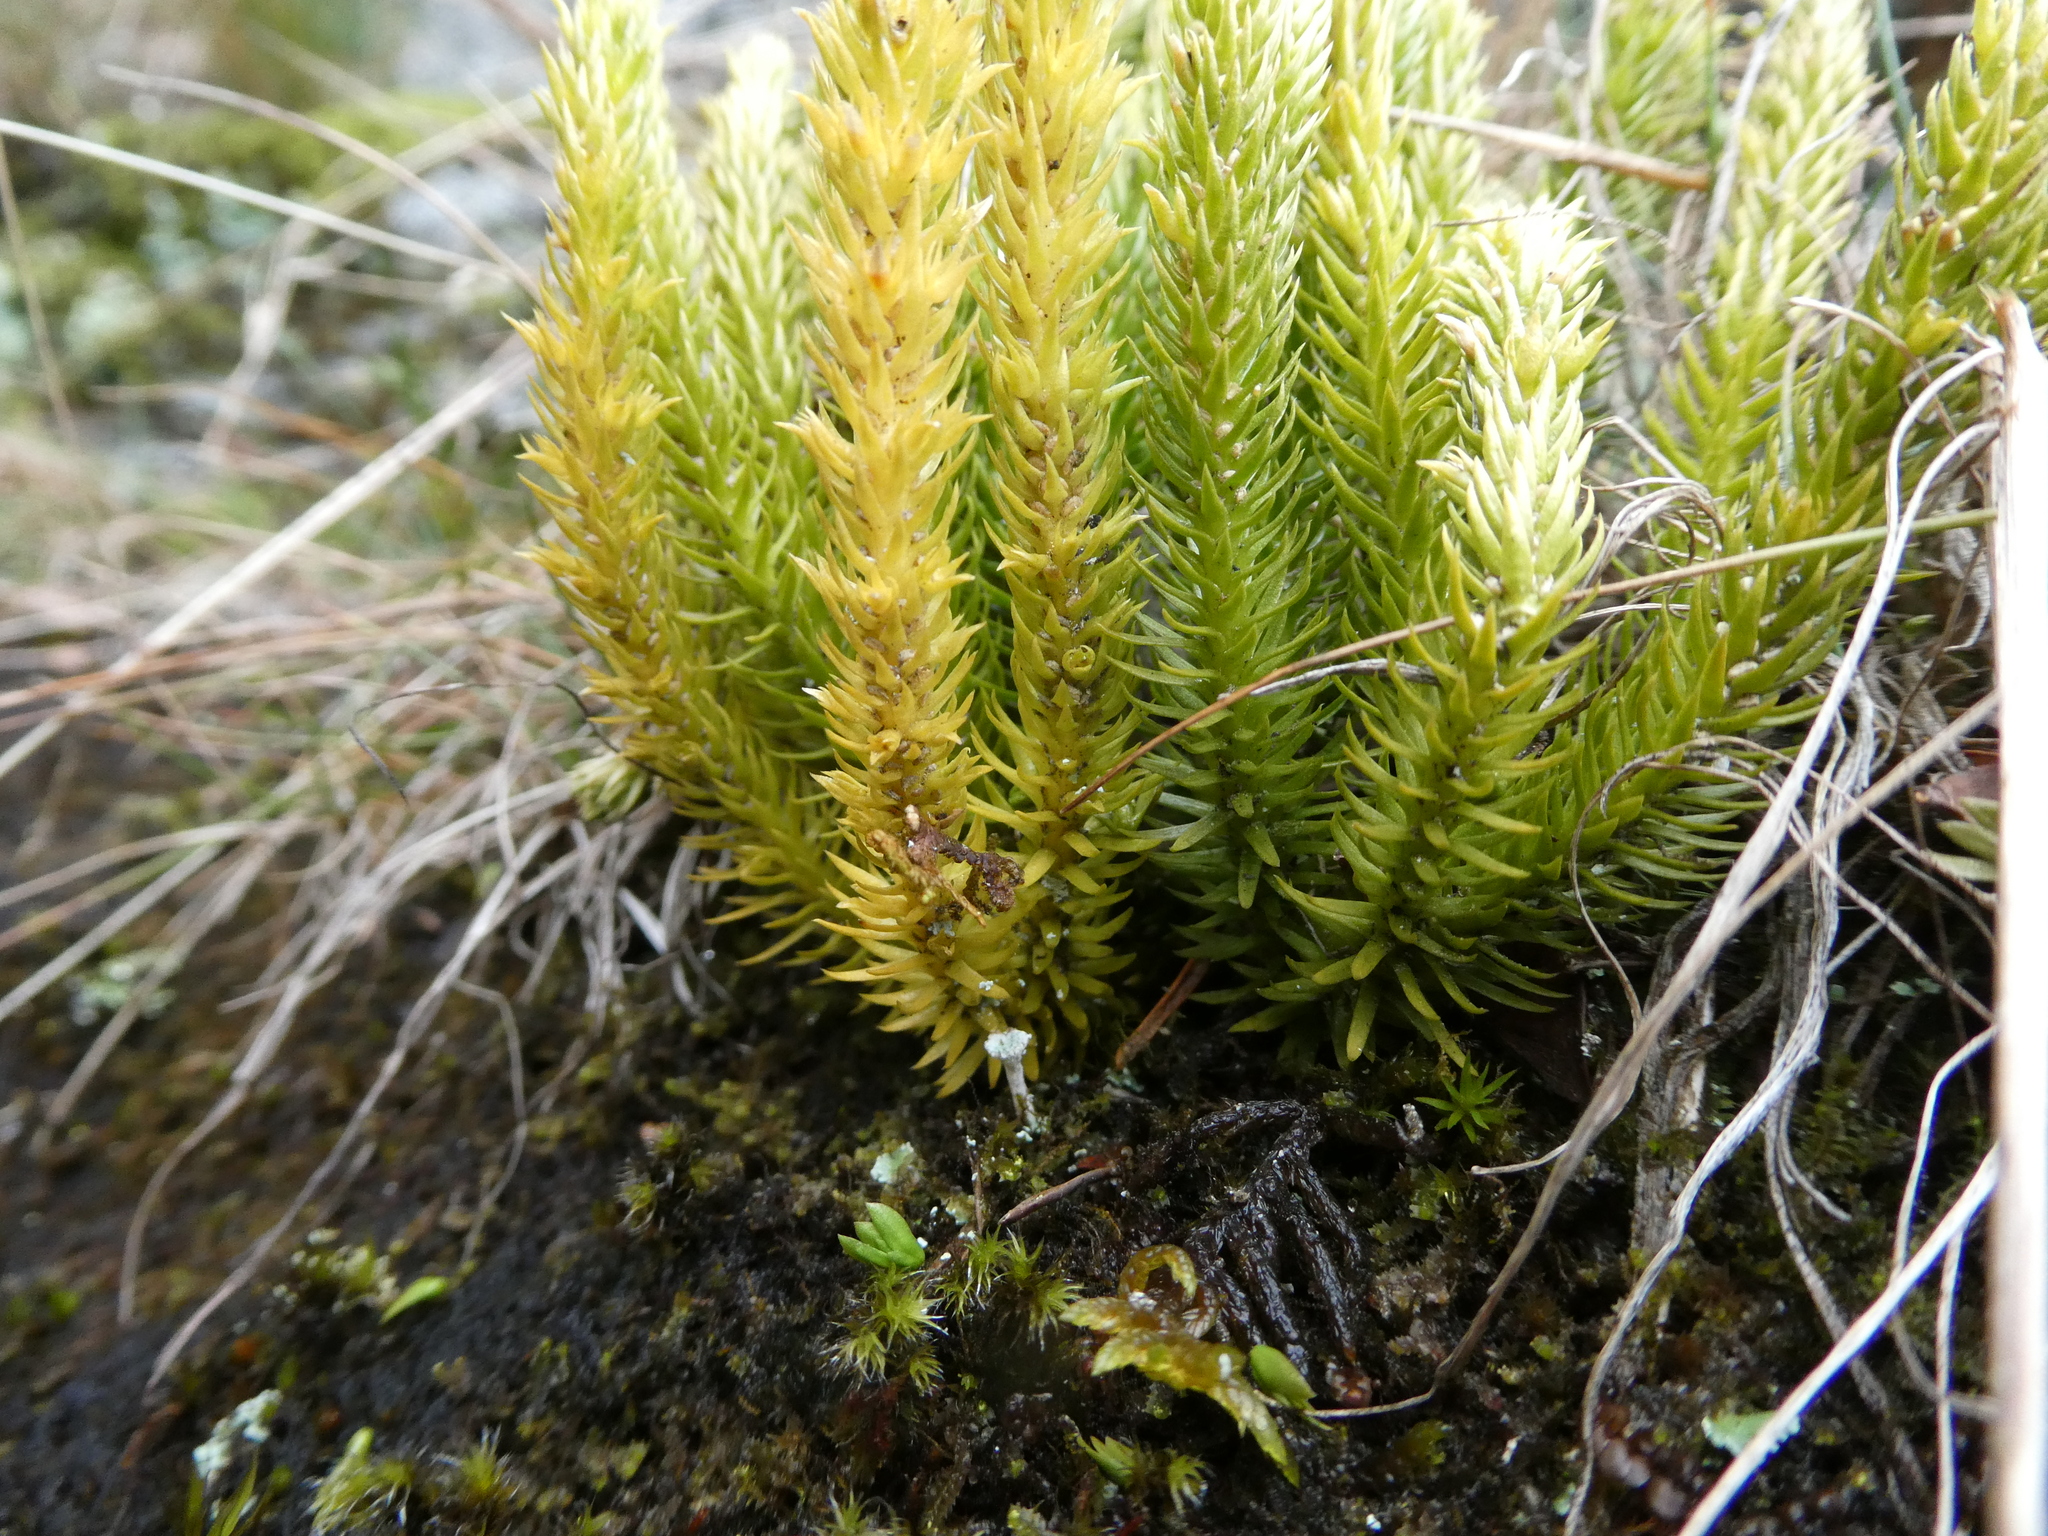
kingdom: Plantae
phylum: Tracheophyta
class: Lycopodiopsida
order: Lycopodiales
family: Lycopodiaceae
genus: Huperzia
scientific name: Huperzia selago
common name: Northern firmoss
